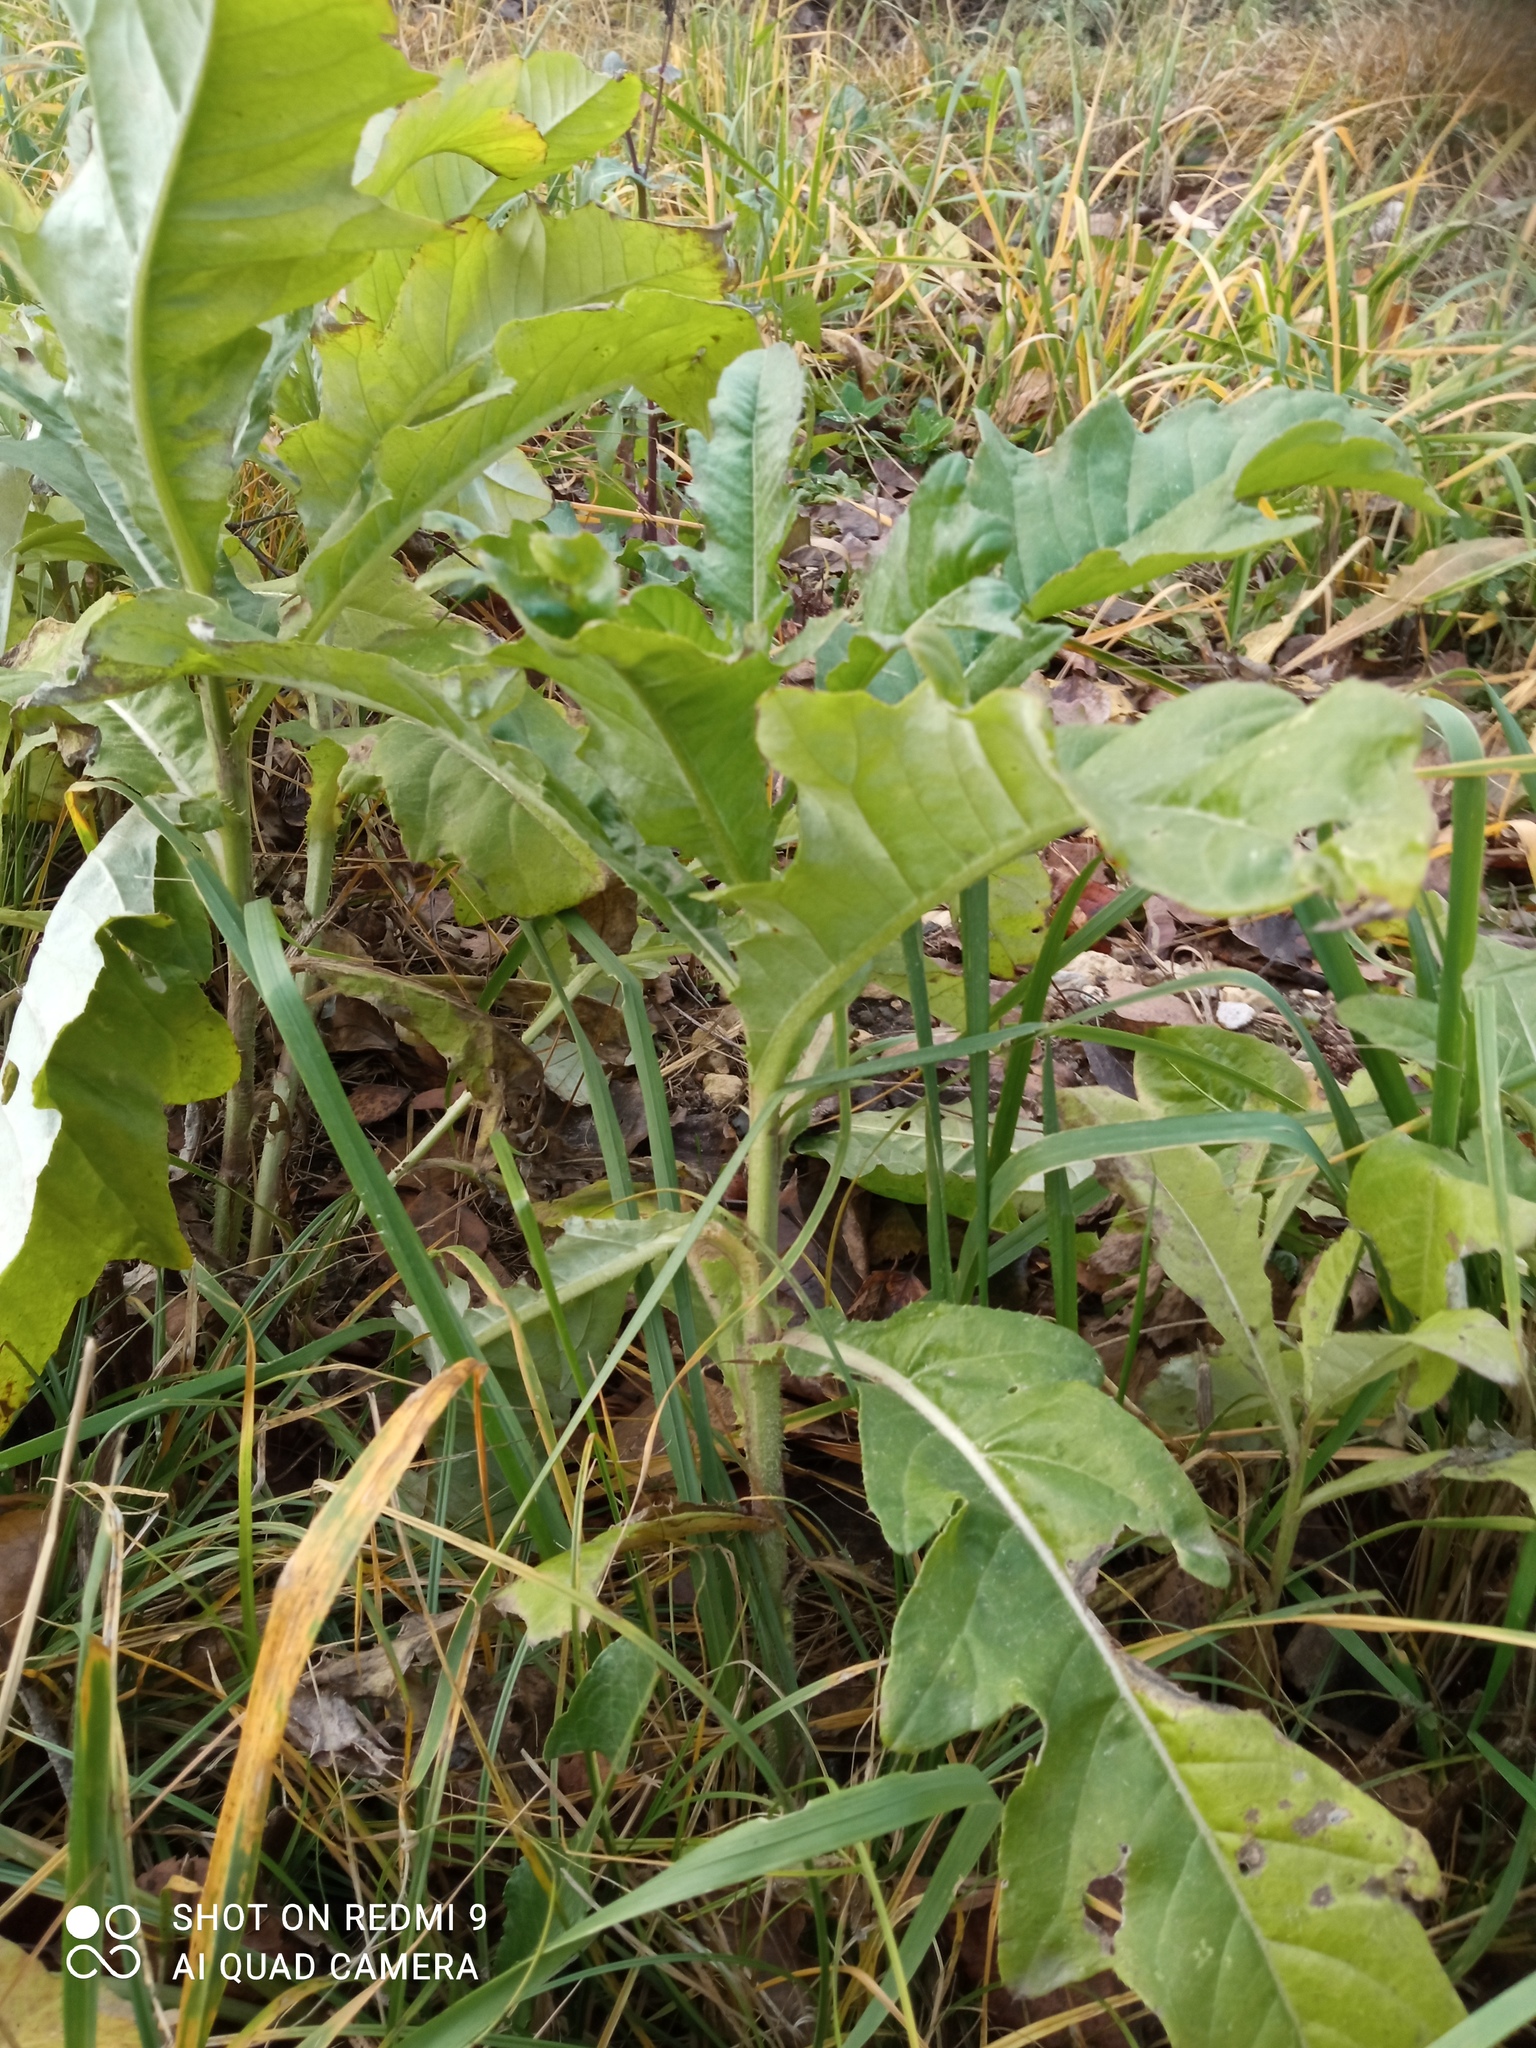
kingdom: Plantae
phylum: Tracheophyta
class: Magnoliopsida
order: Asterales
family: Asteraceae
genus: Cirsium
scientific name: Cirsium arvense
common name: Creeping thistle
